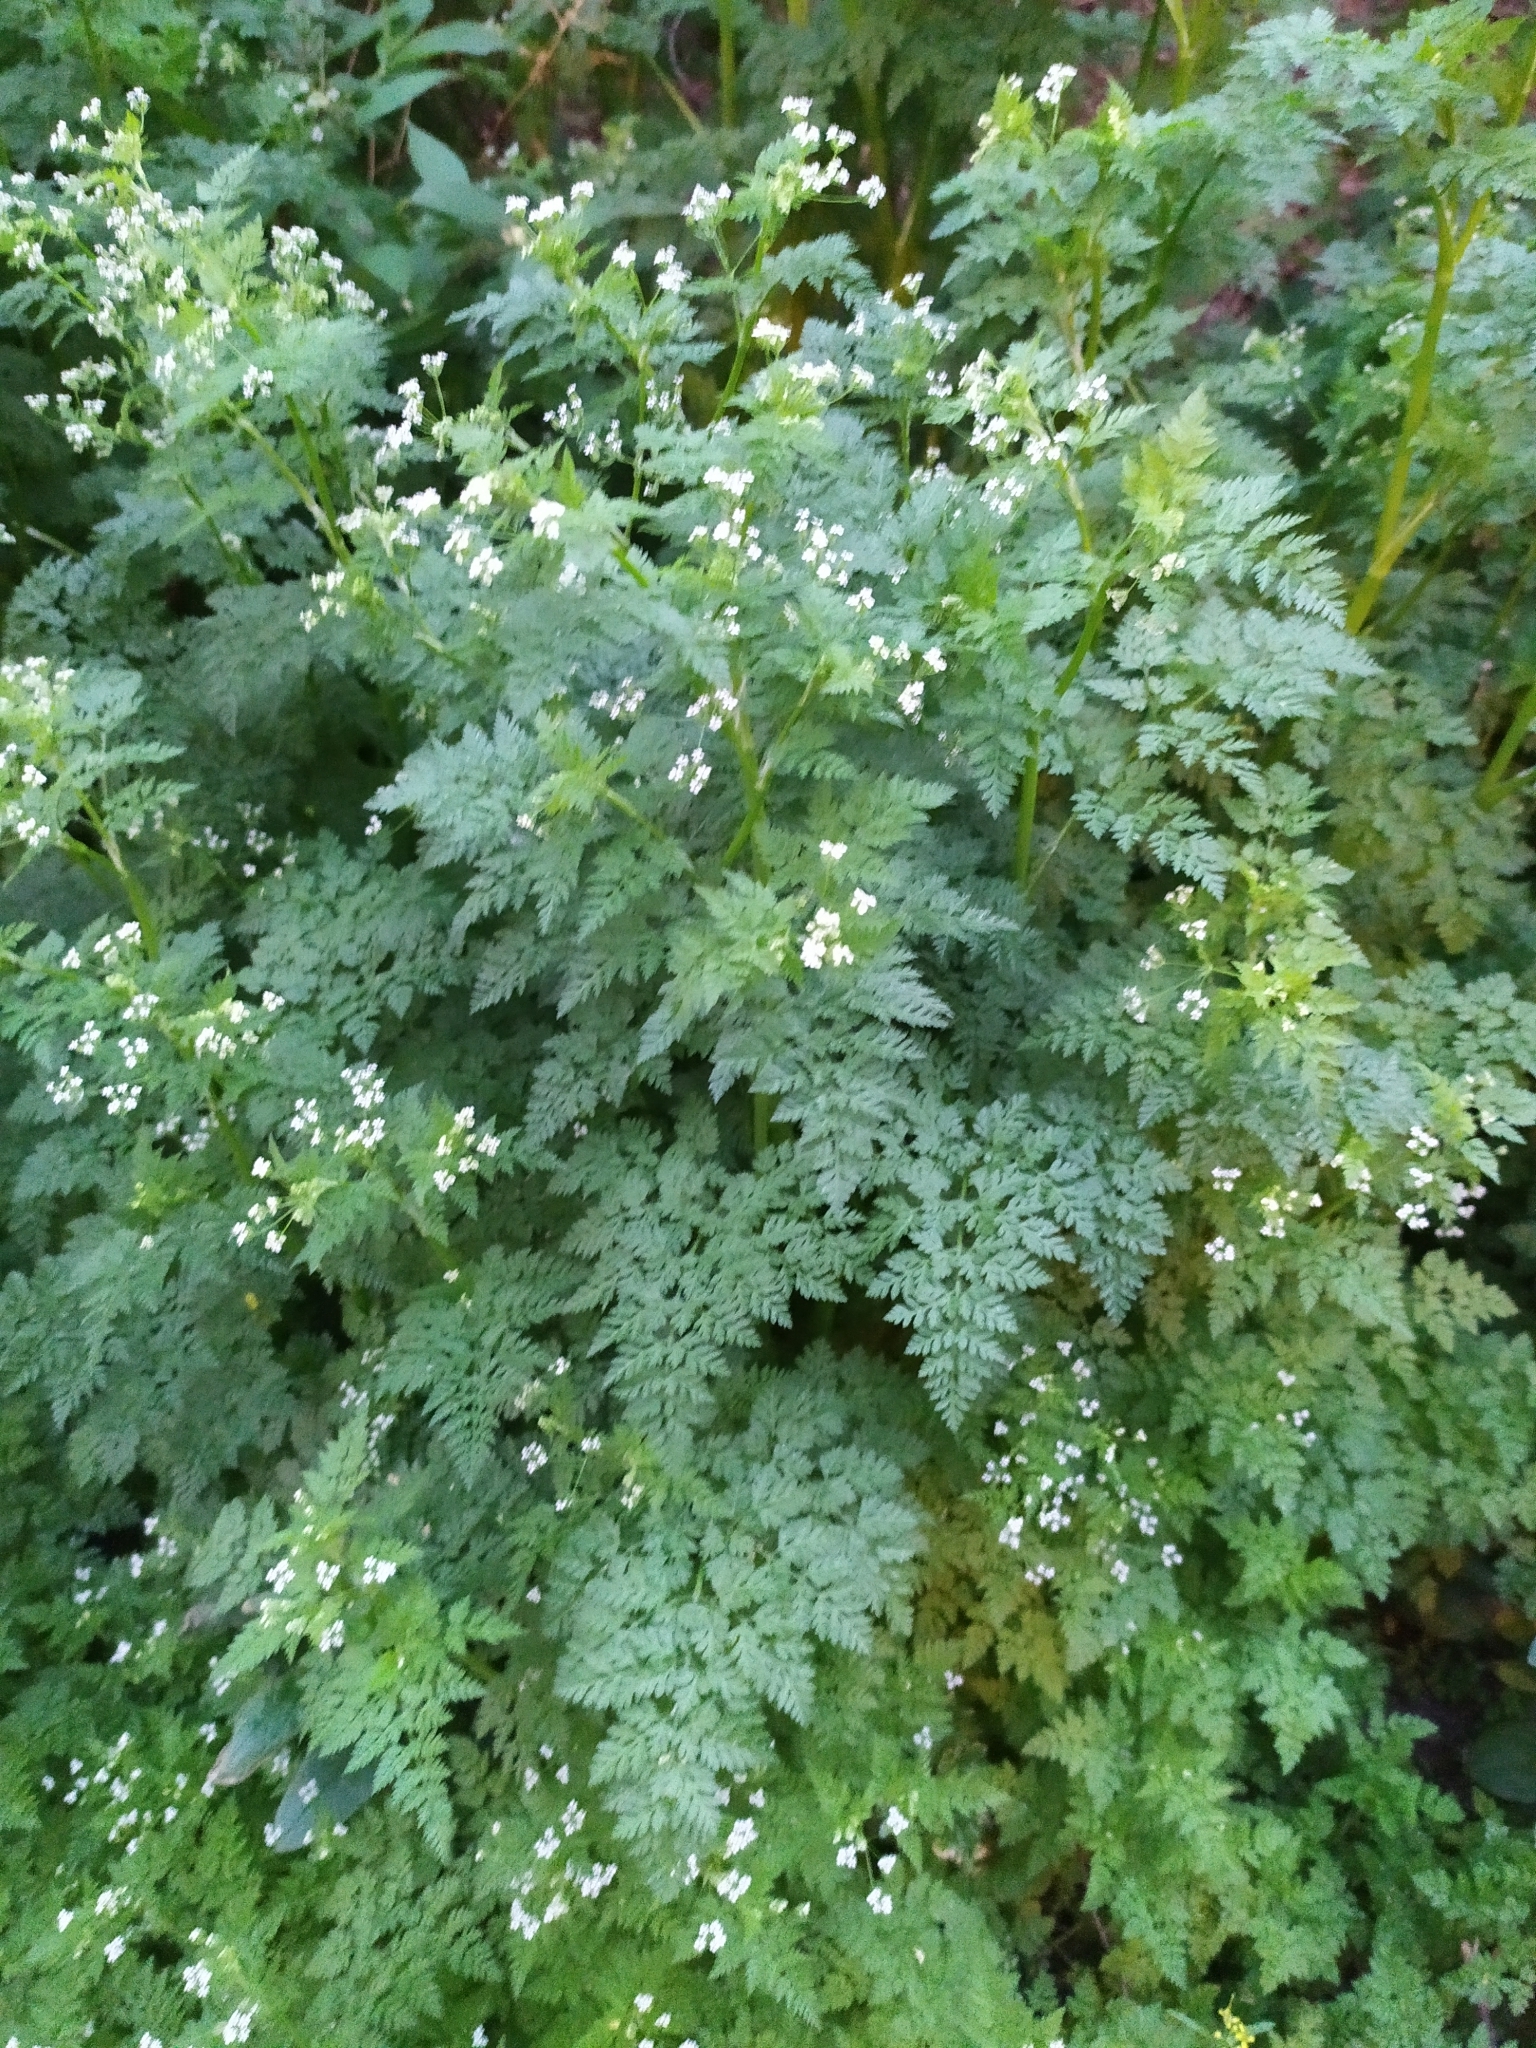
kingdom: Plantae
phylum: Tracheophyta
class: Magnoliopsida
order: Apiales
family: Apiaceae
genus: Anthriscus
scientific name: Anthriscus sylvestris
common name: Cow parsley
